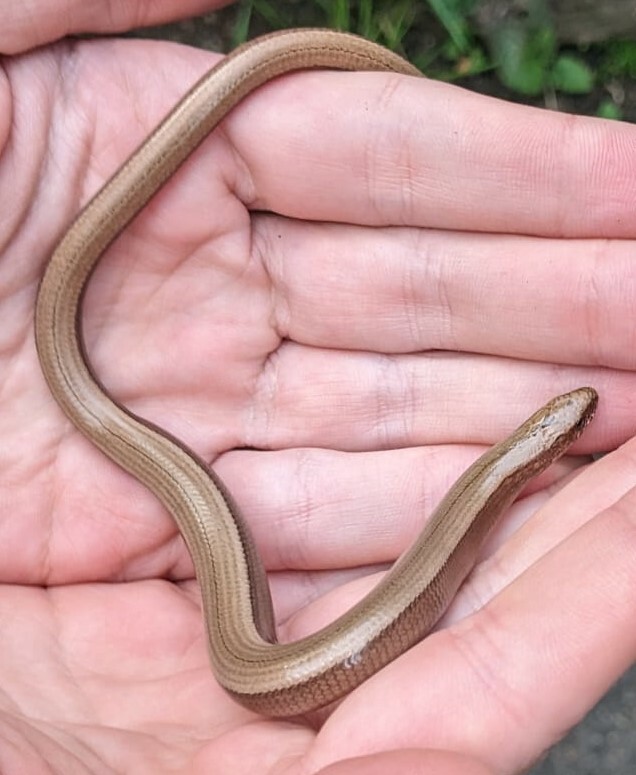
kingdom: Animalia
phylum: Chordata
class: Squamata
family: Anguidae
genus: Anguis
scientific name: Anguis fragilis
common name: Slow worm
